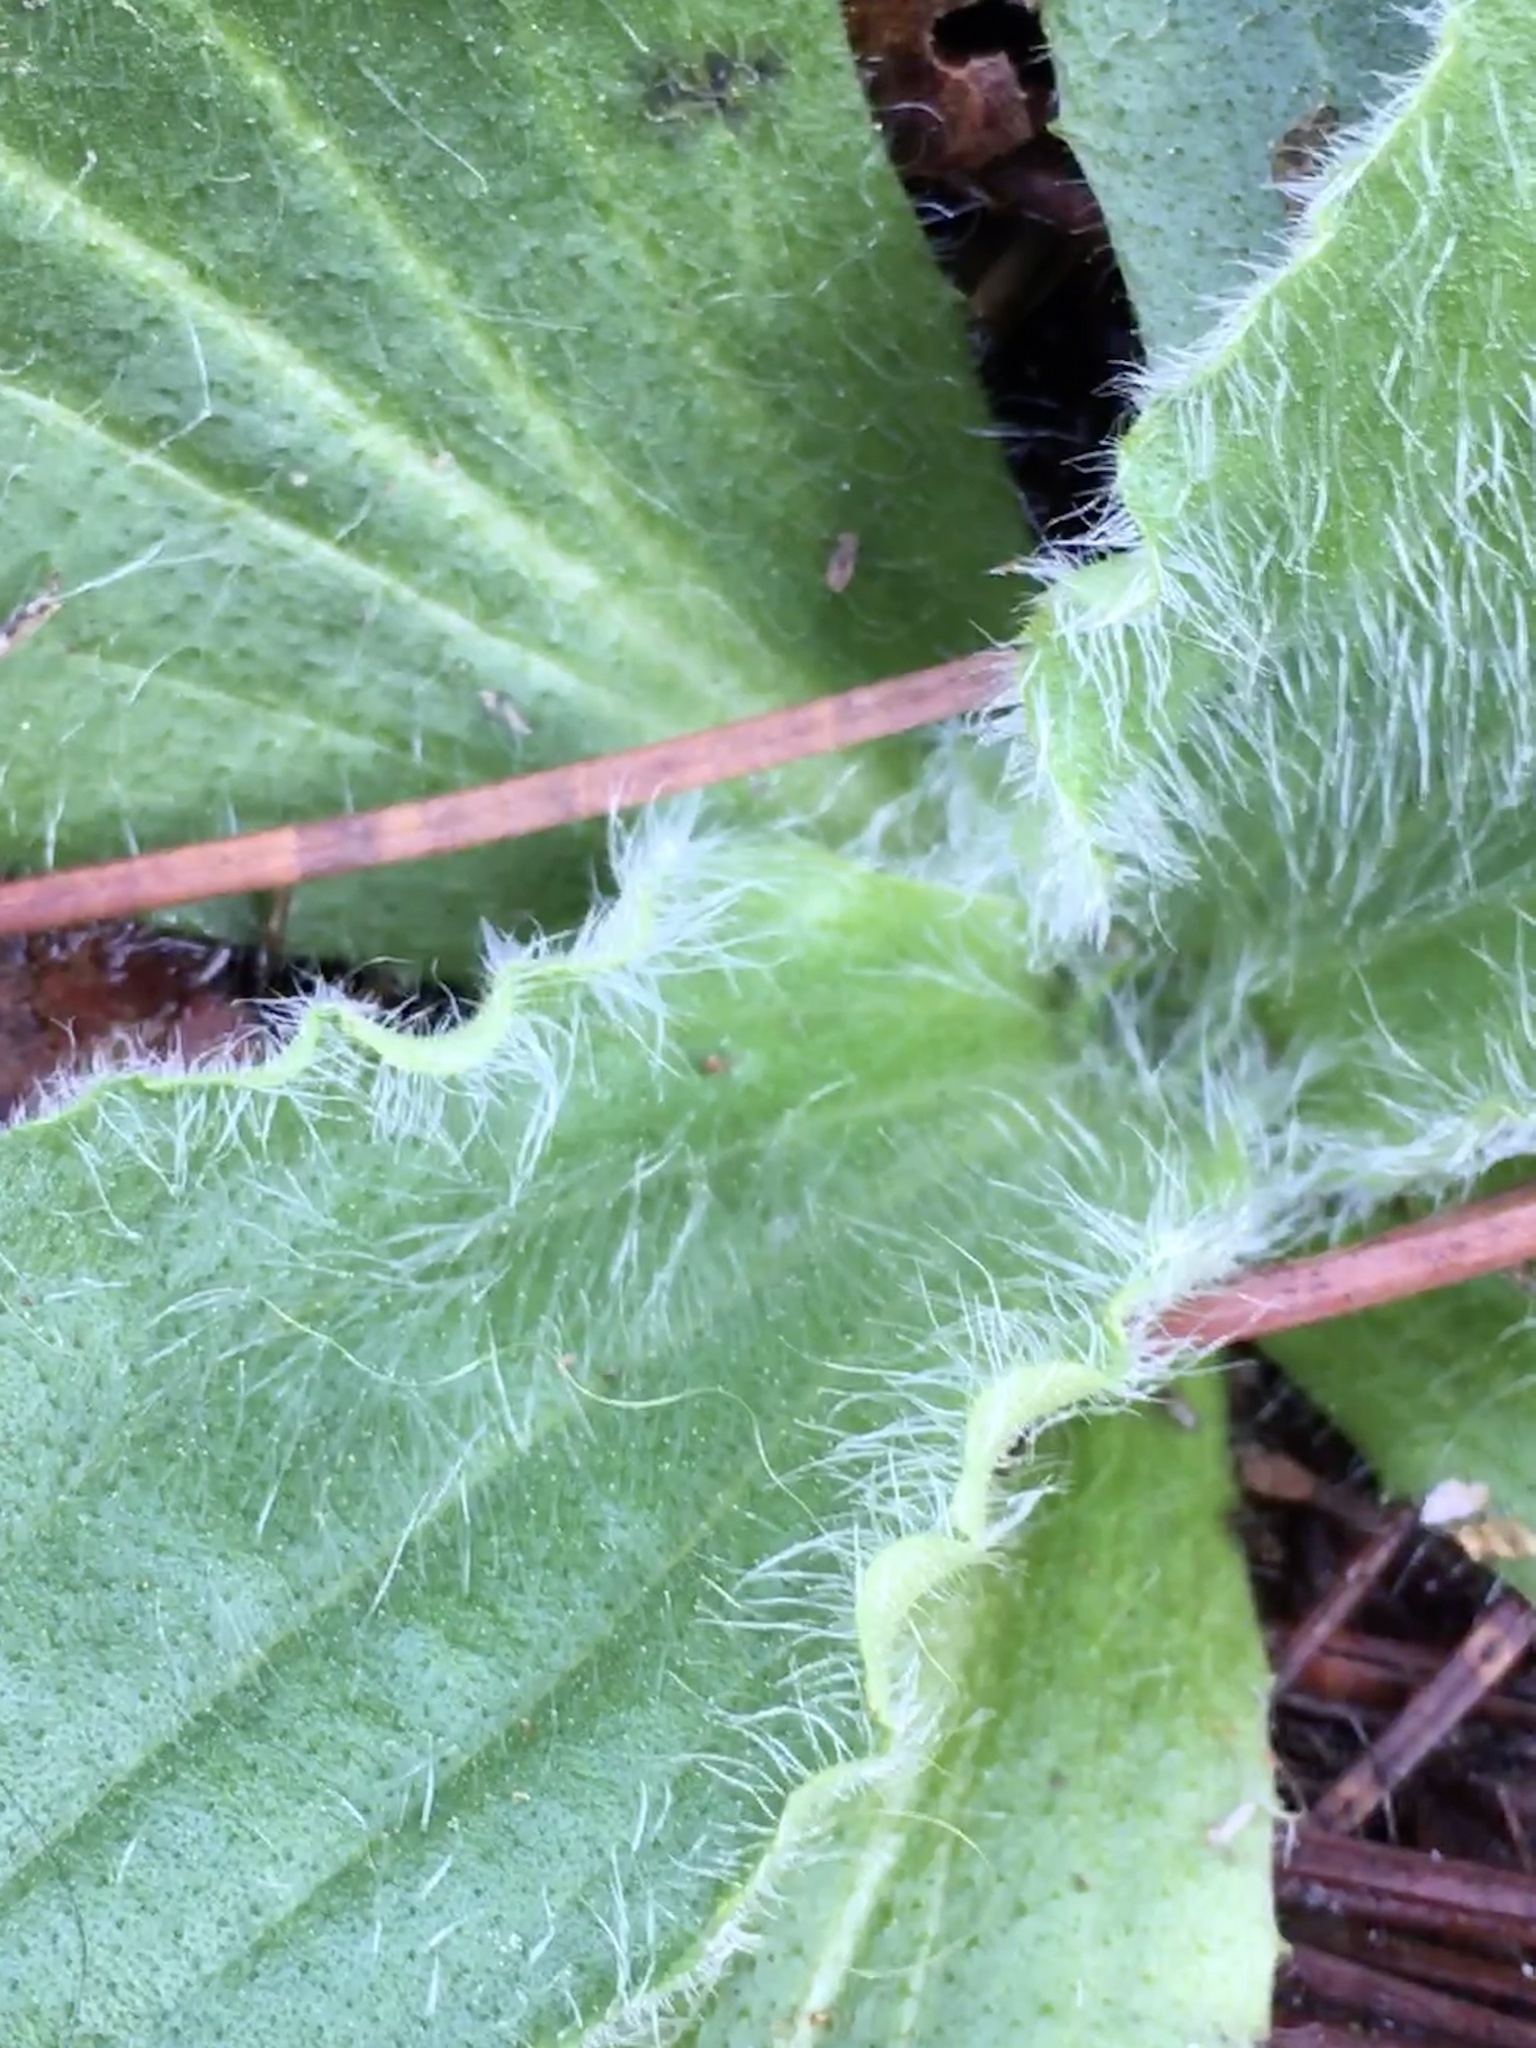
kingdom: Plantae
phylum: Tracheophyta
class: Magnoliopsida
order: Asterales
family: Asteraceae
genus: Arnica
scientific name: Arnica acaulis
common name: Common leopardbane
